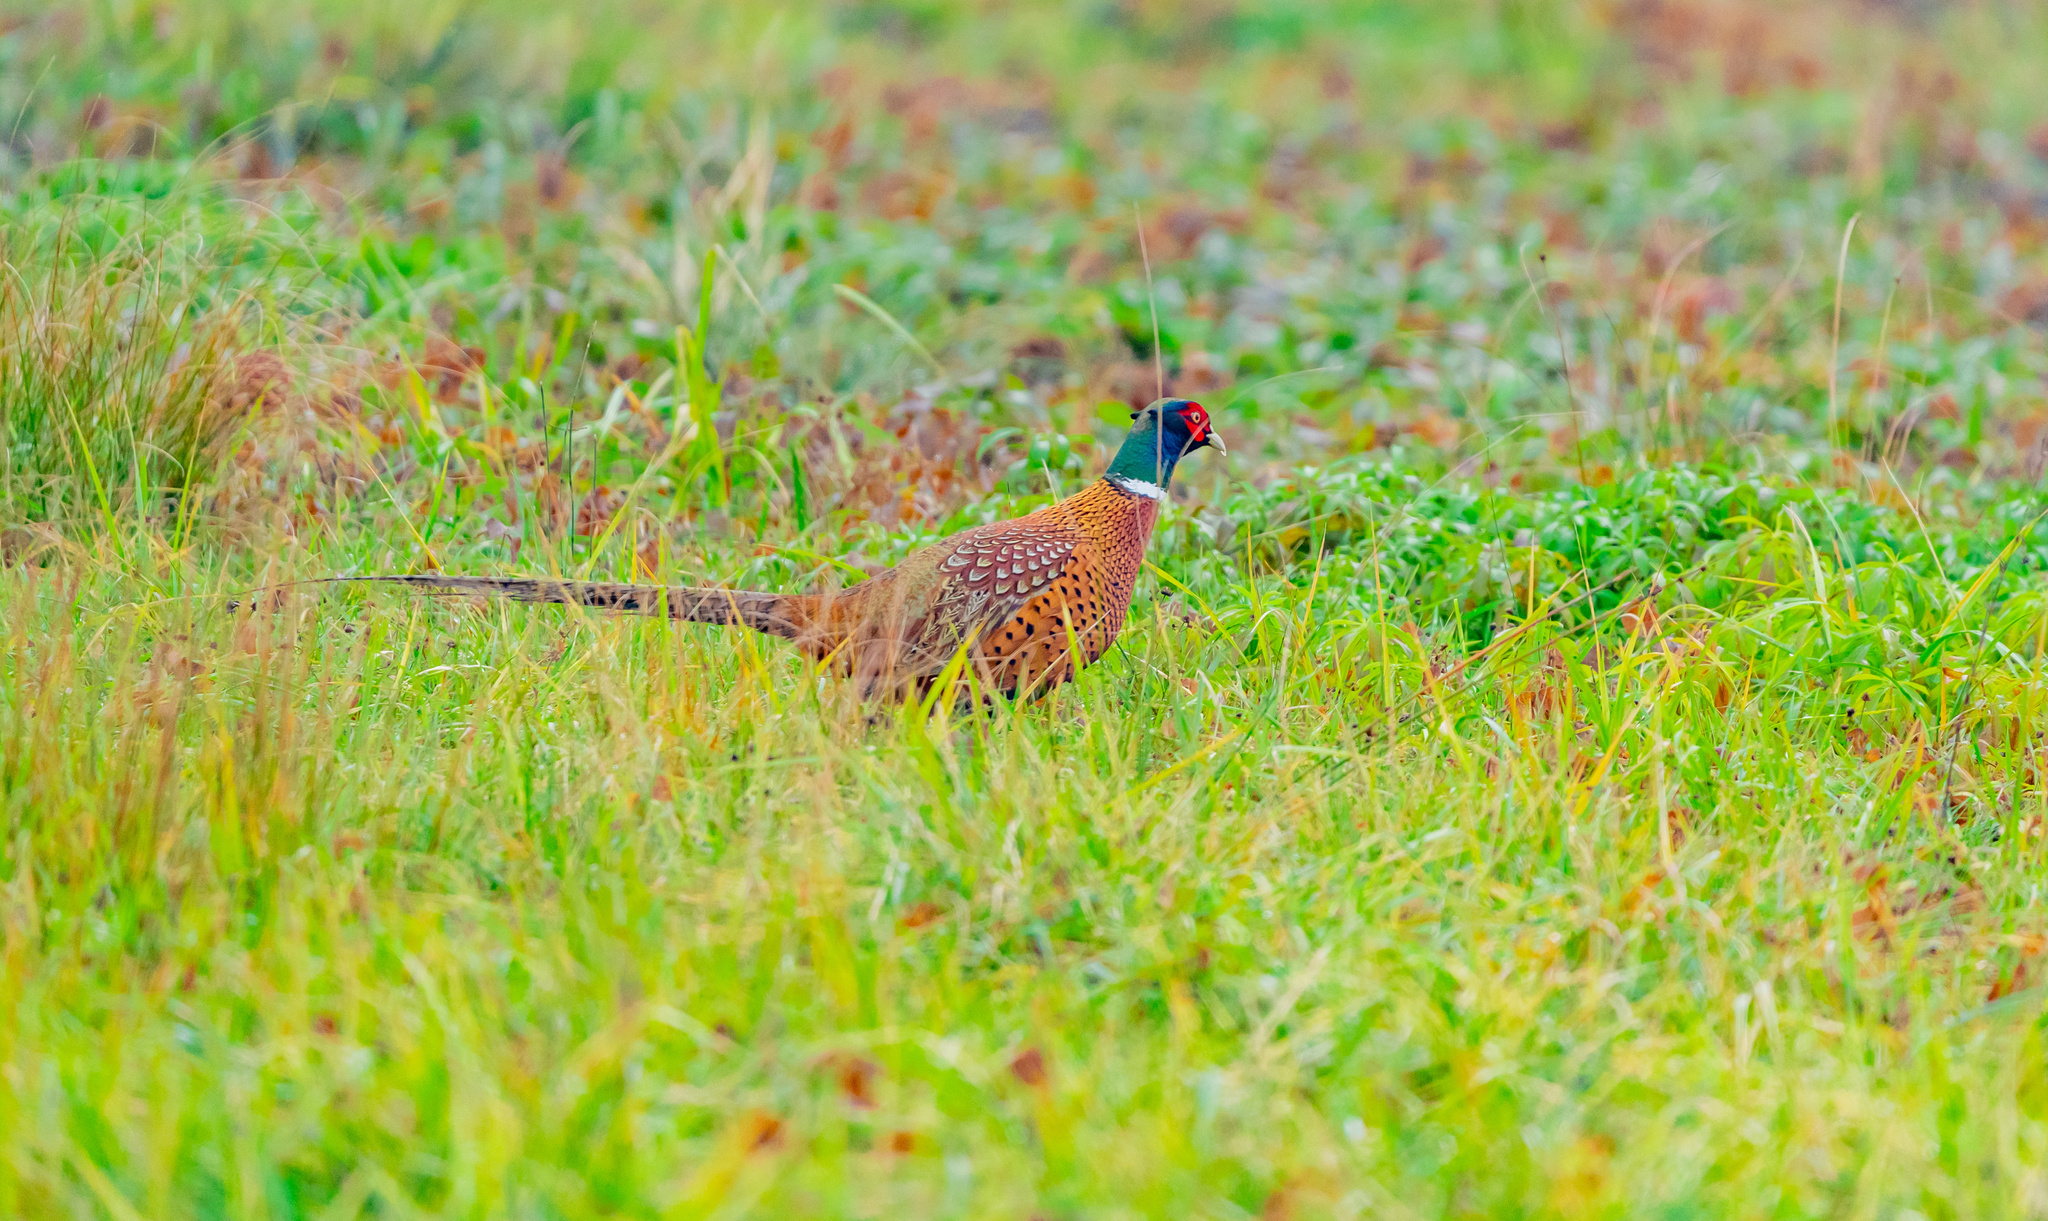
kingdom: Animalia
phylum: Chordata
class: Aves
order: Galliformes
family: Phasianidae
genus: Phasianus
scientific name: Phasianus colchicus
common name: Common pheasant
